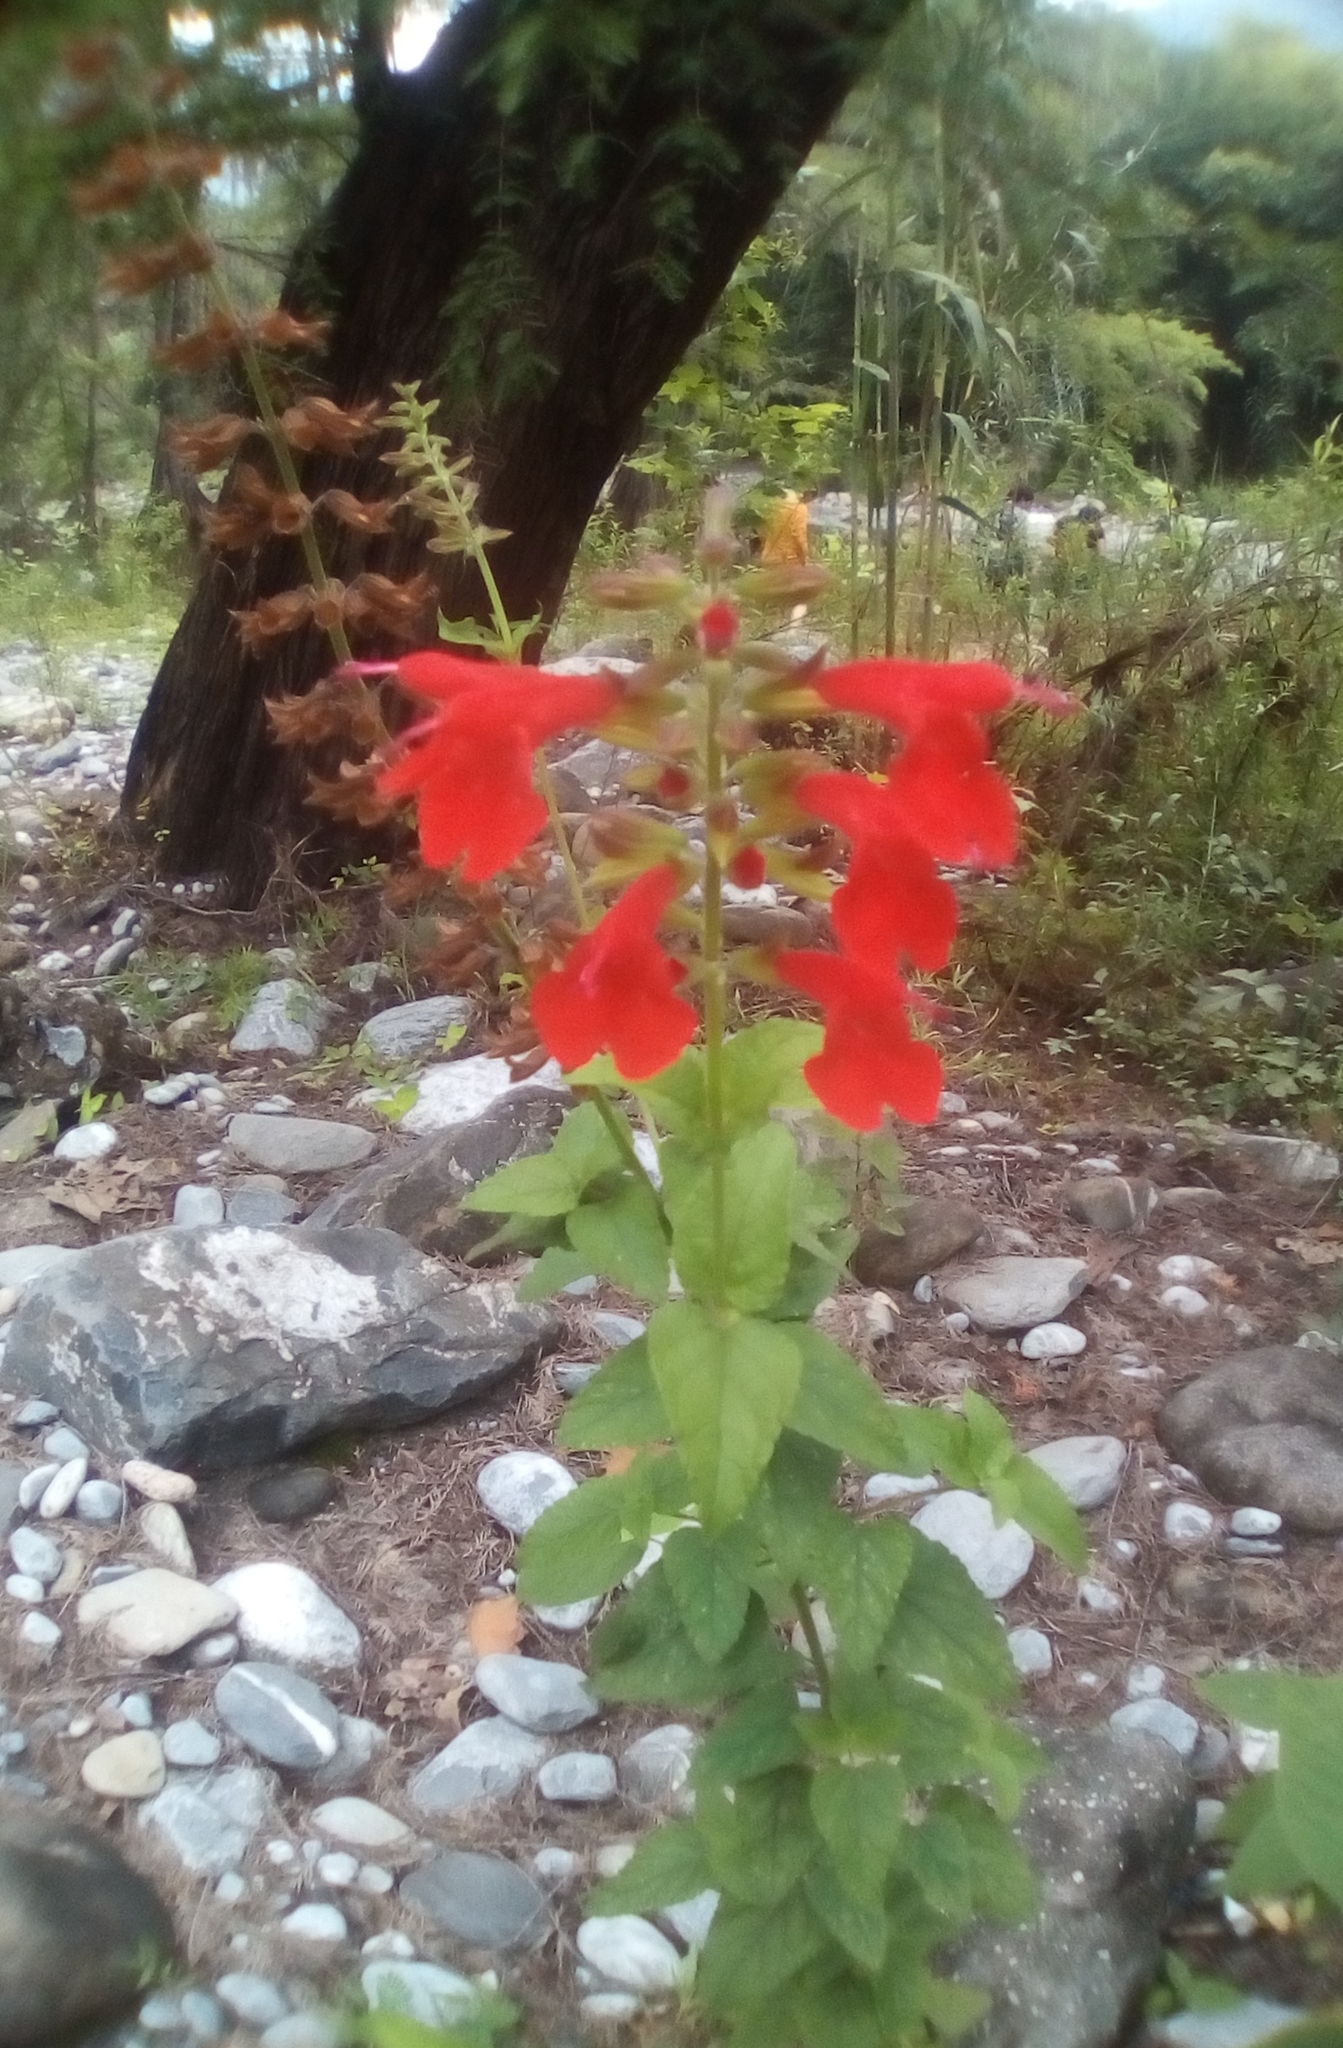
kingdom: Plantae
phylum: Tracheophyta
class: Magnoliopsida
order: Lamiales
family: Lamiaceae
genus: Salvia
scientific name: Salvia coccinea
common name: Blood sage
